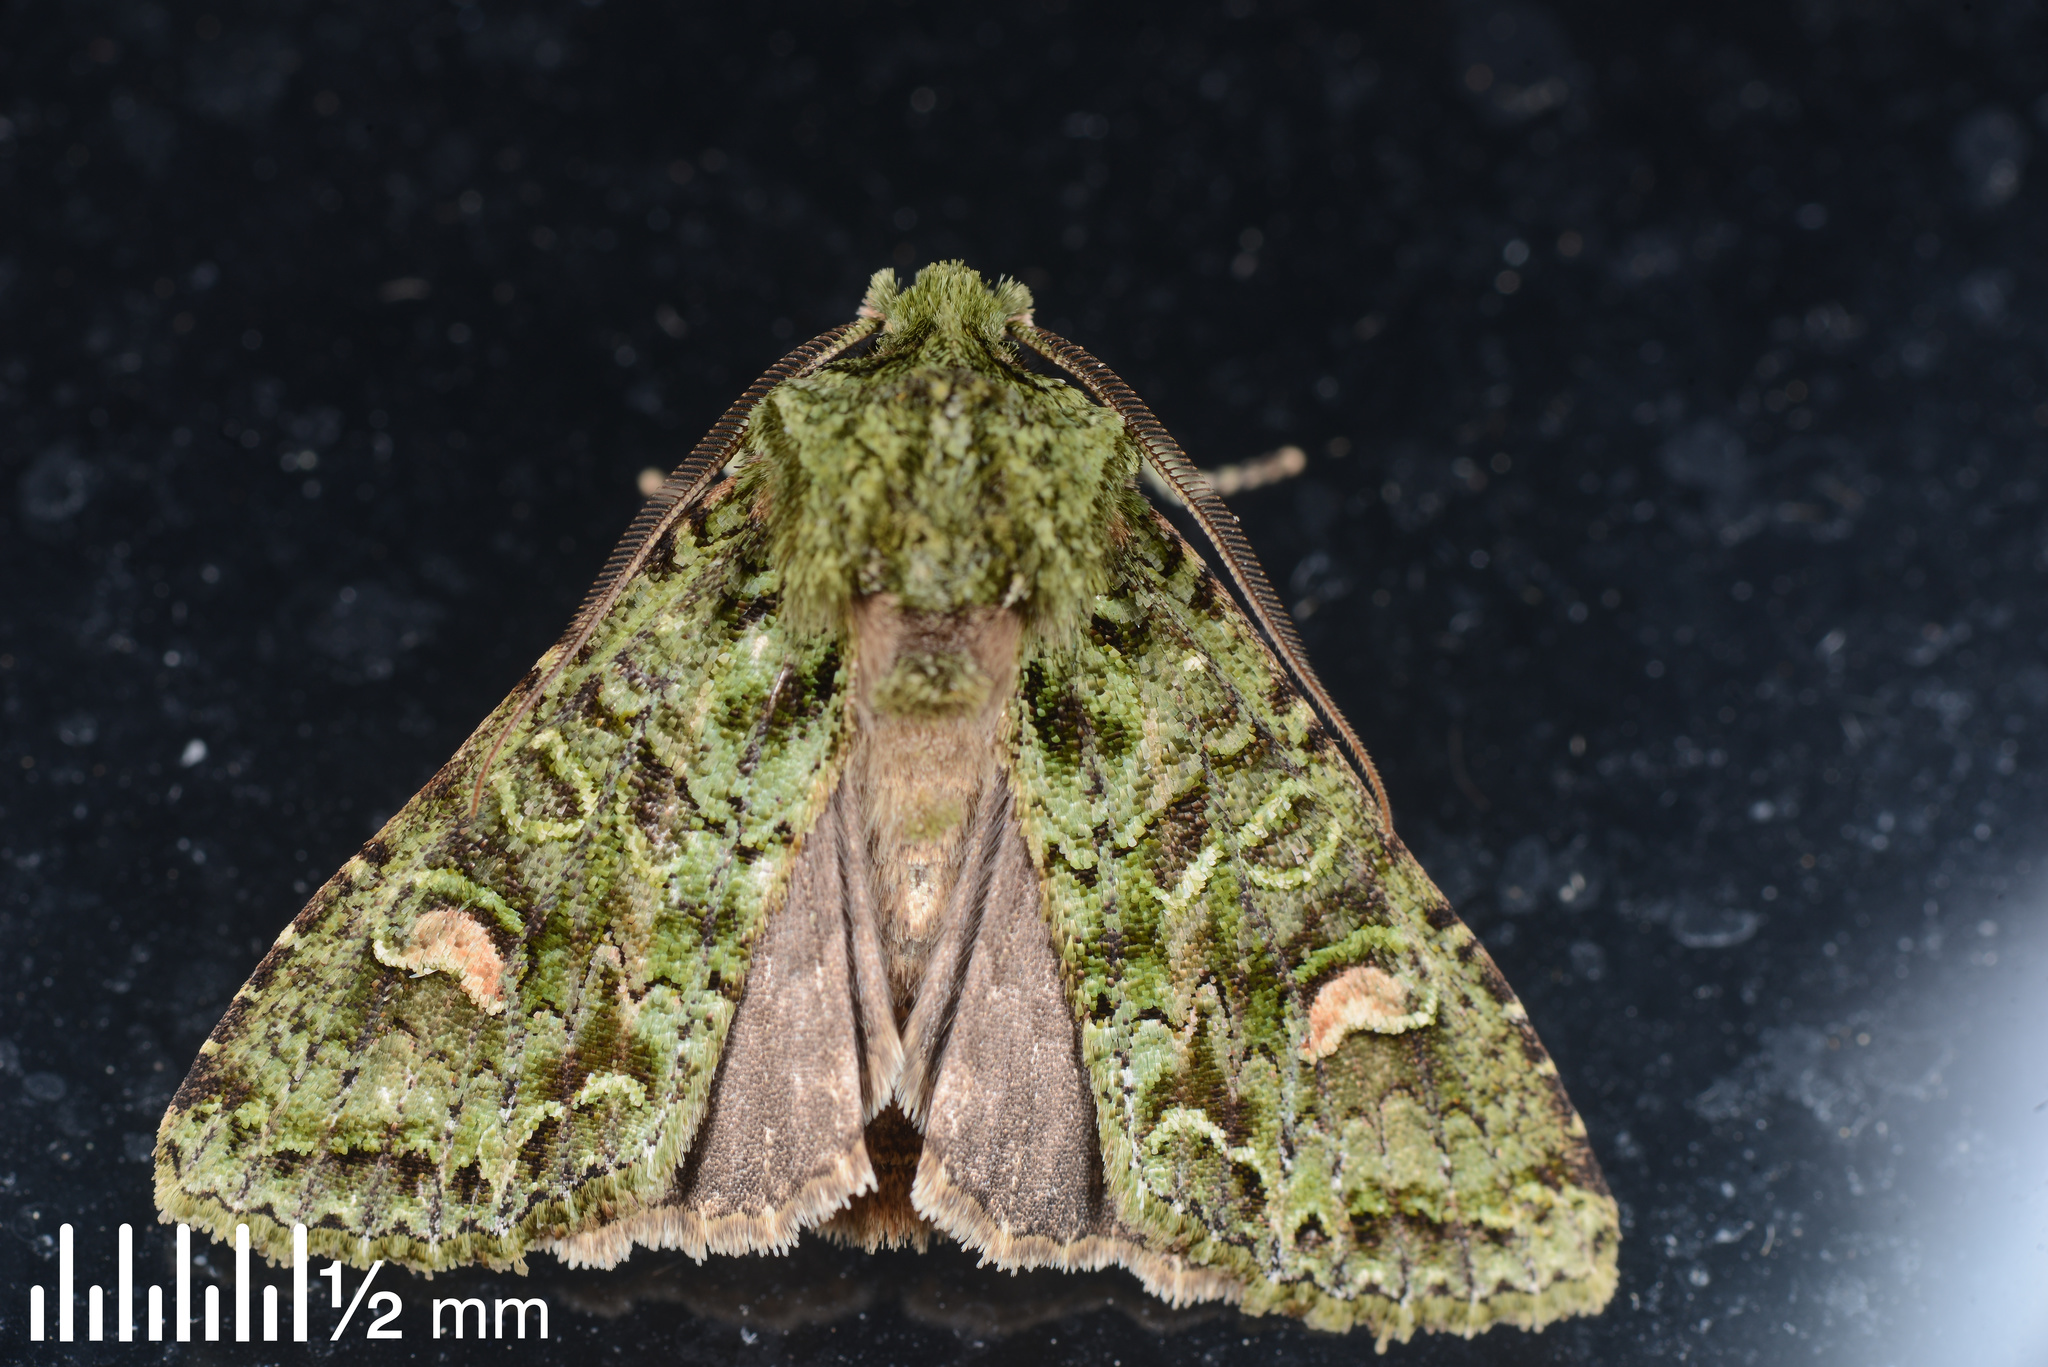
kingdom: Animalia
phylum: Arthropoda
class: Insecta
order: Lepidoptera
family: Noctuidae
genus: Ichneutica
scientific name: Ichneutica
